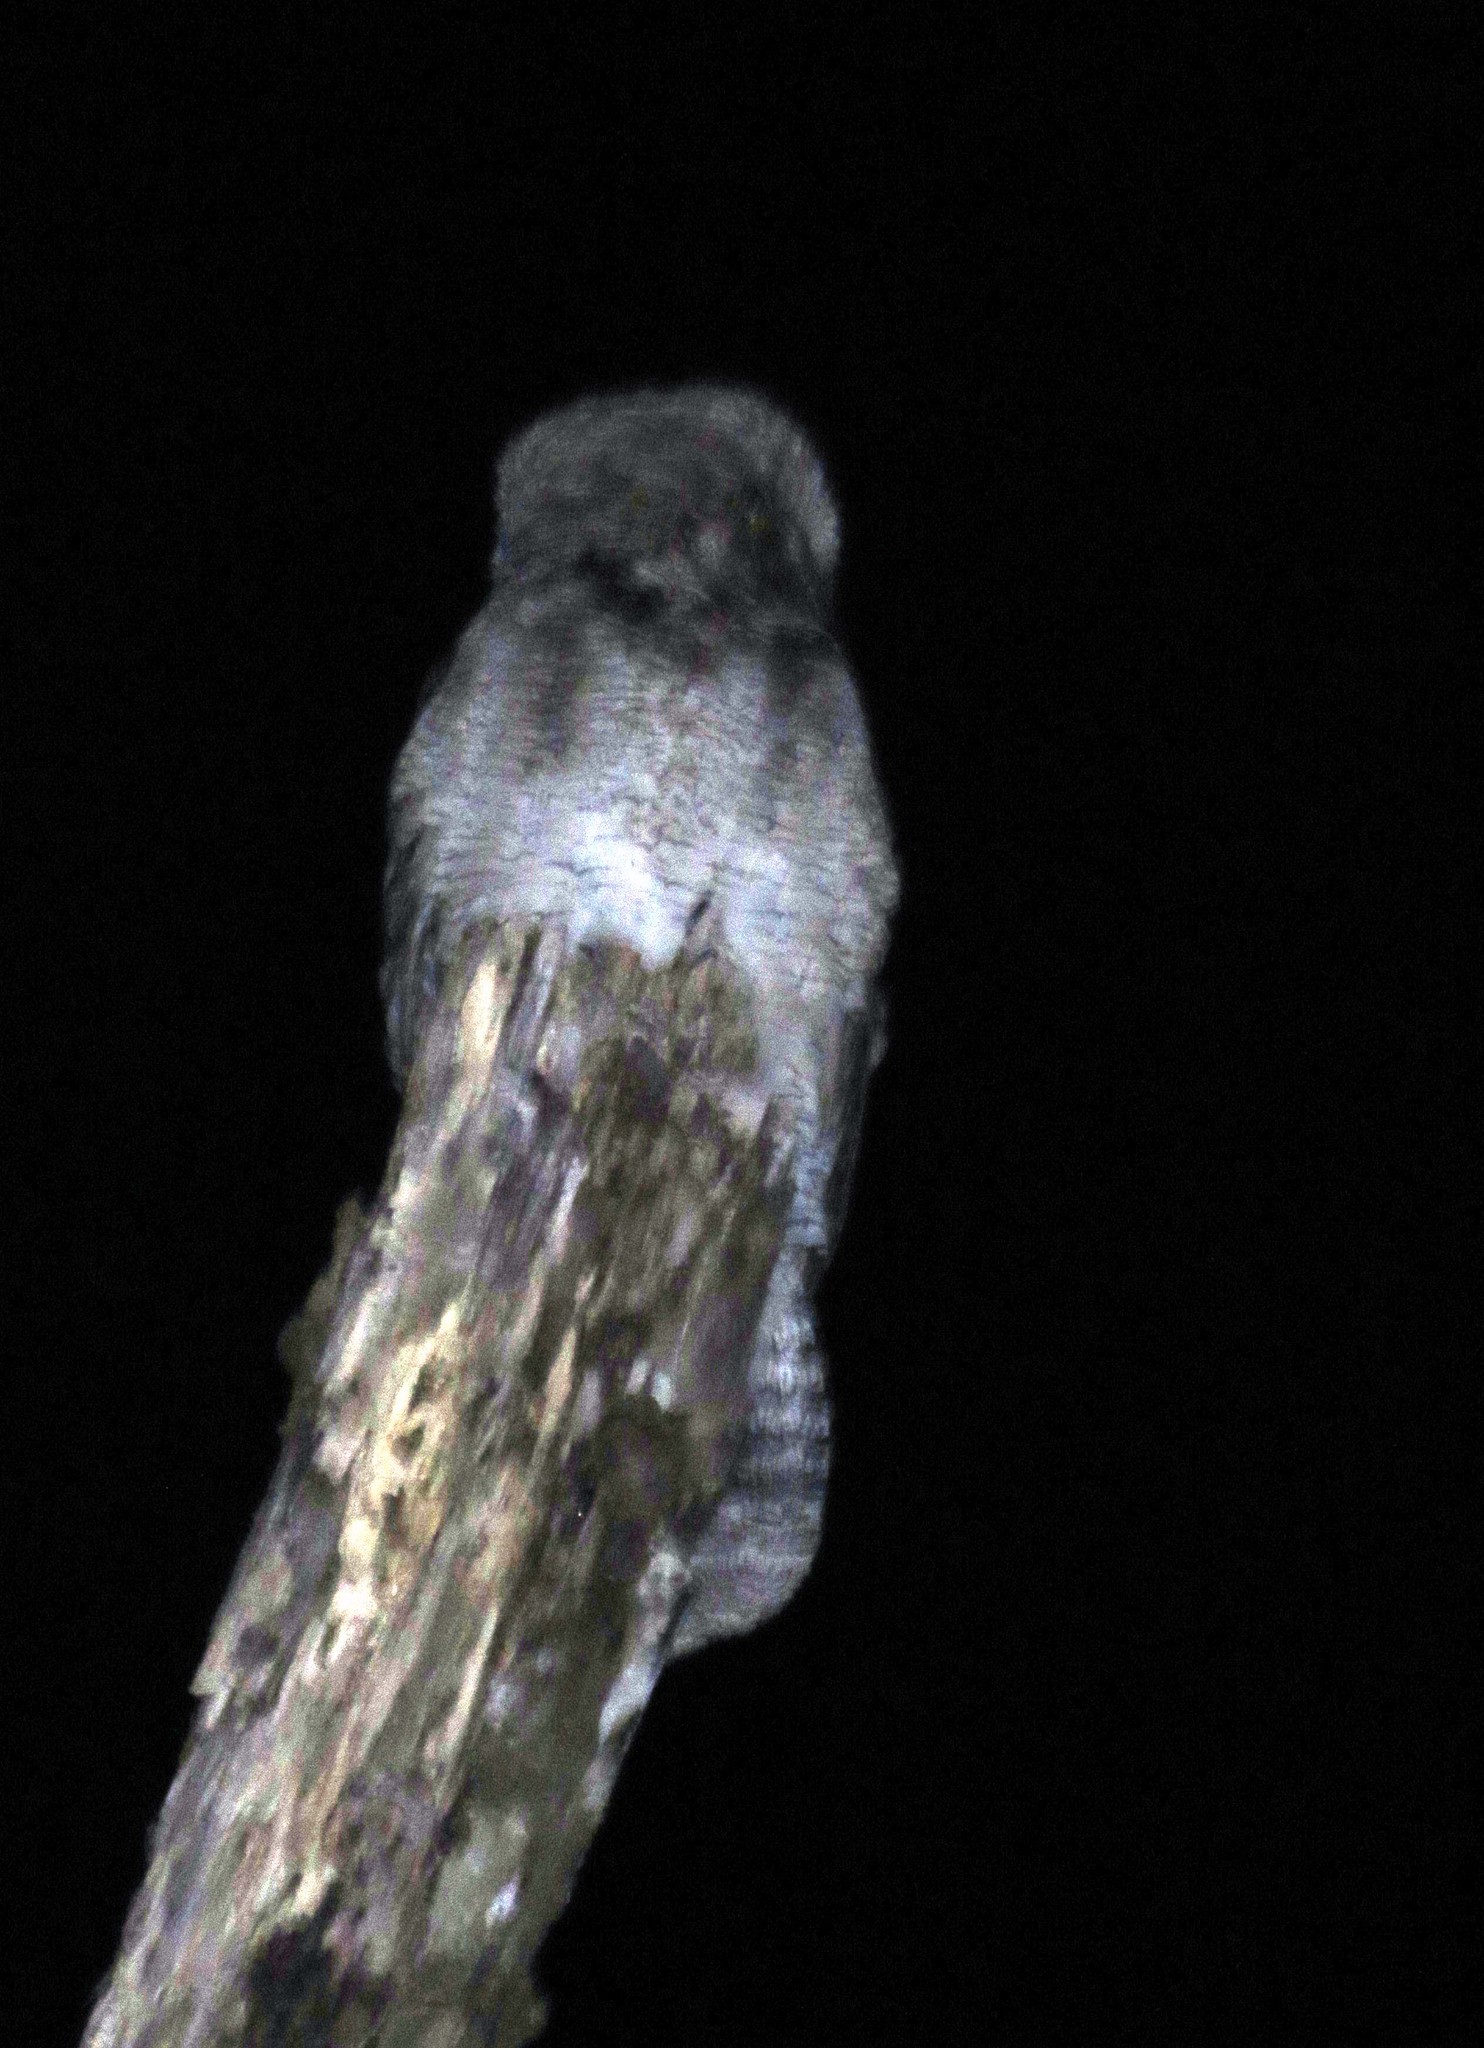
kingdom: Animalia
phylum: Chordata
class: Aves
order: Nyctibiiformes
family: Nyctibiidae
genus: Nyctibius
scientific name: Nyctibius grandis
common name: Great potoo
